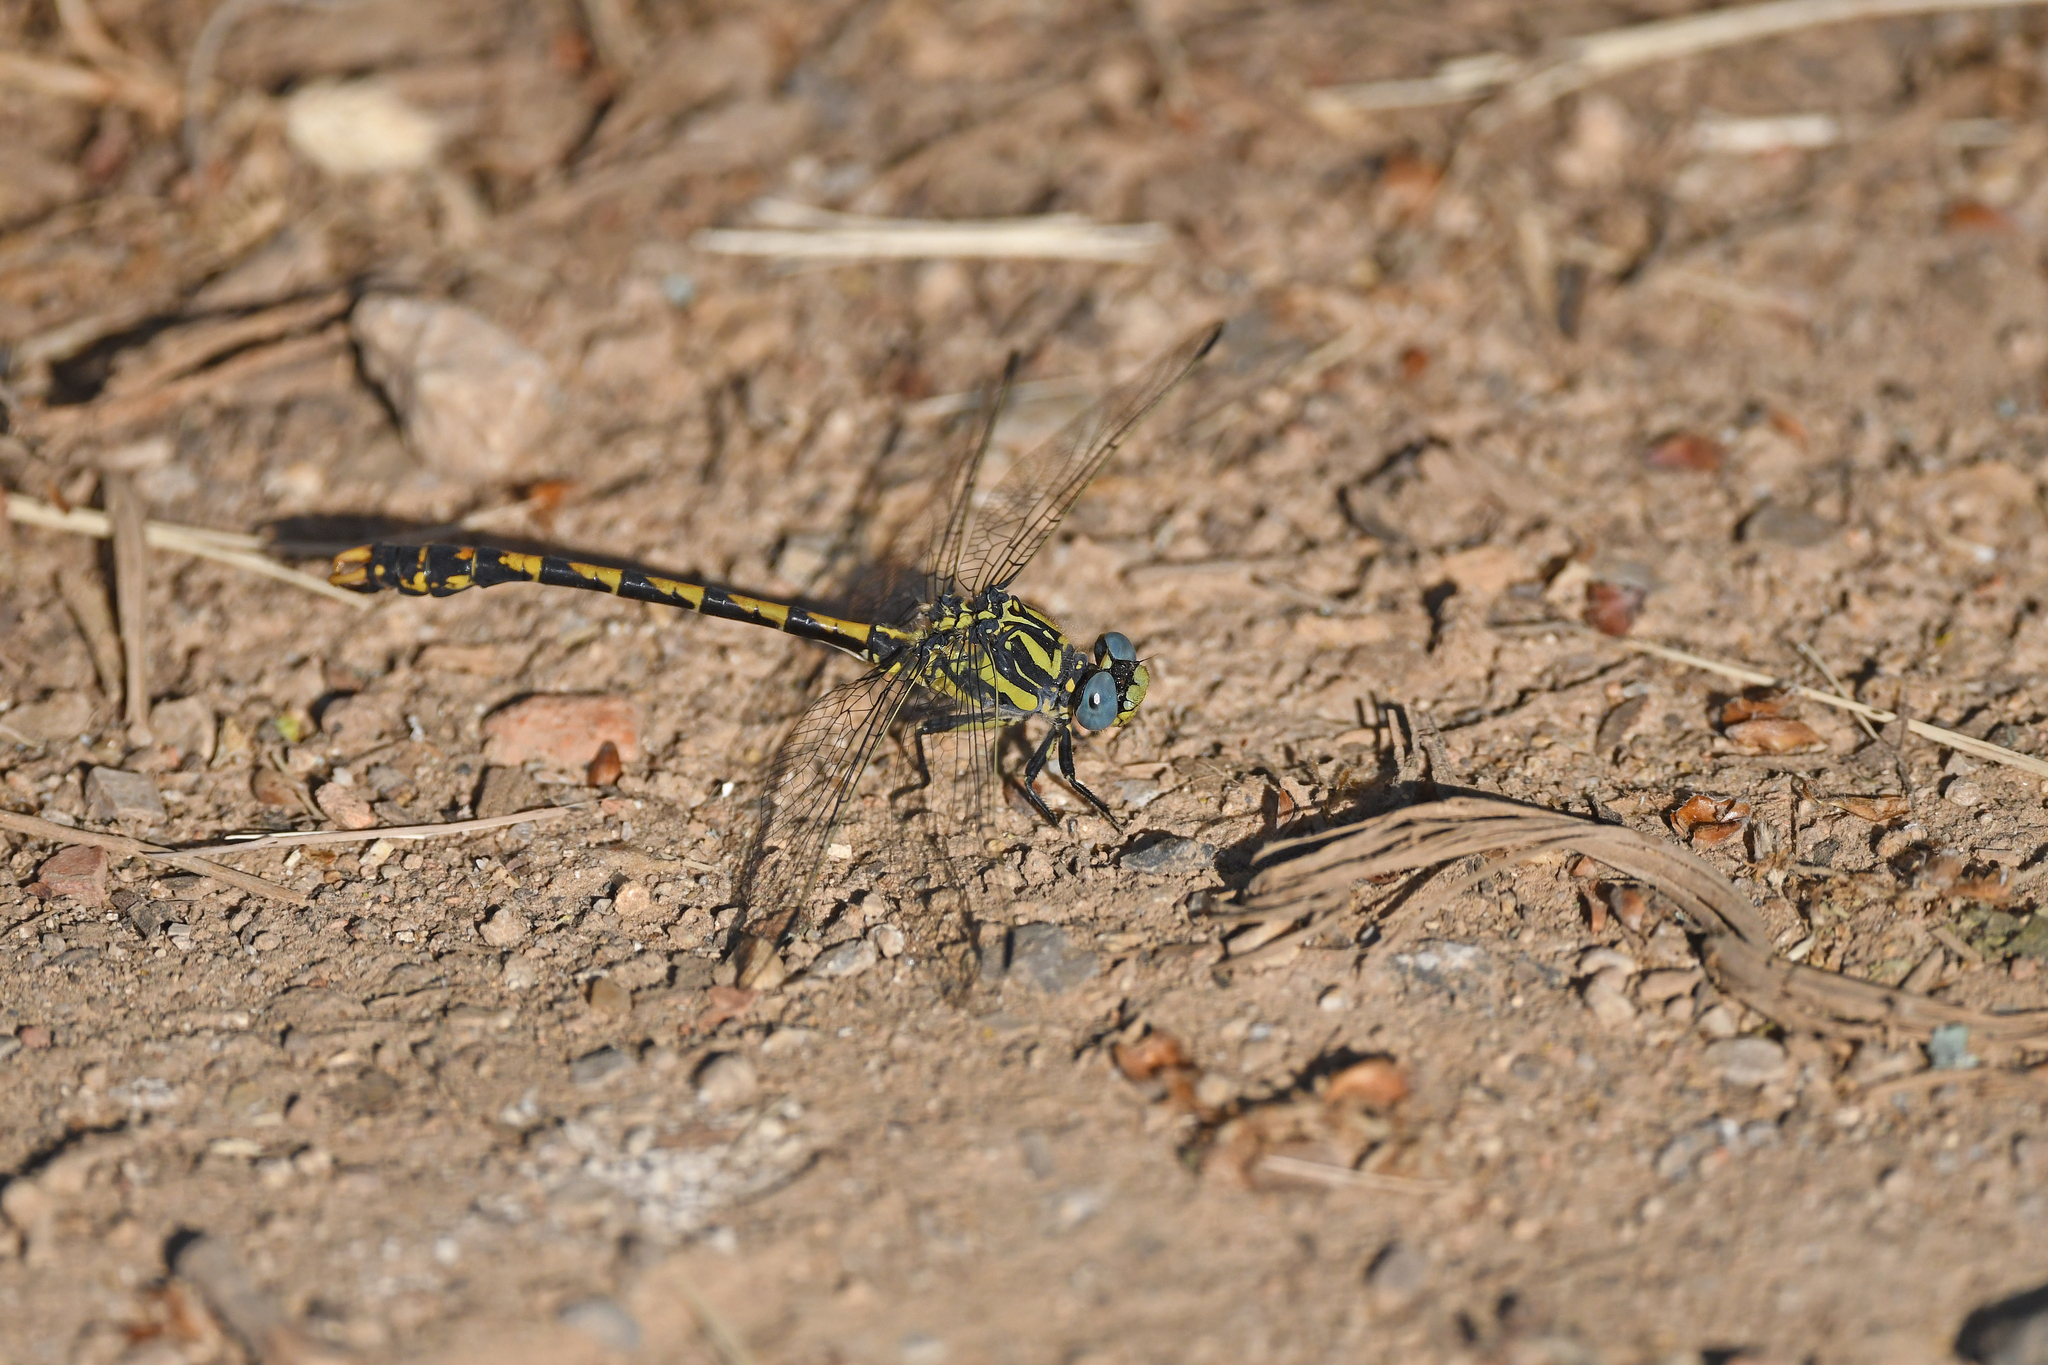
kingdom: Animalia
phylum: Arthropoda
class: Insecta
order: Odonata
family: Gomphidae
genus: Onychogomphus
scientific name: Onychogomphus uncatus
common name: Large pincertail
